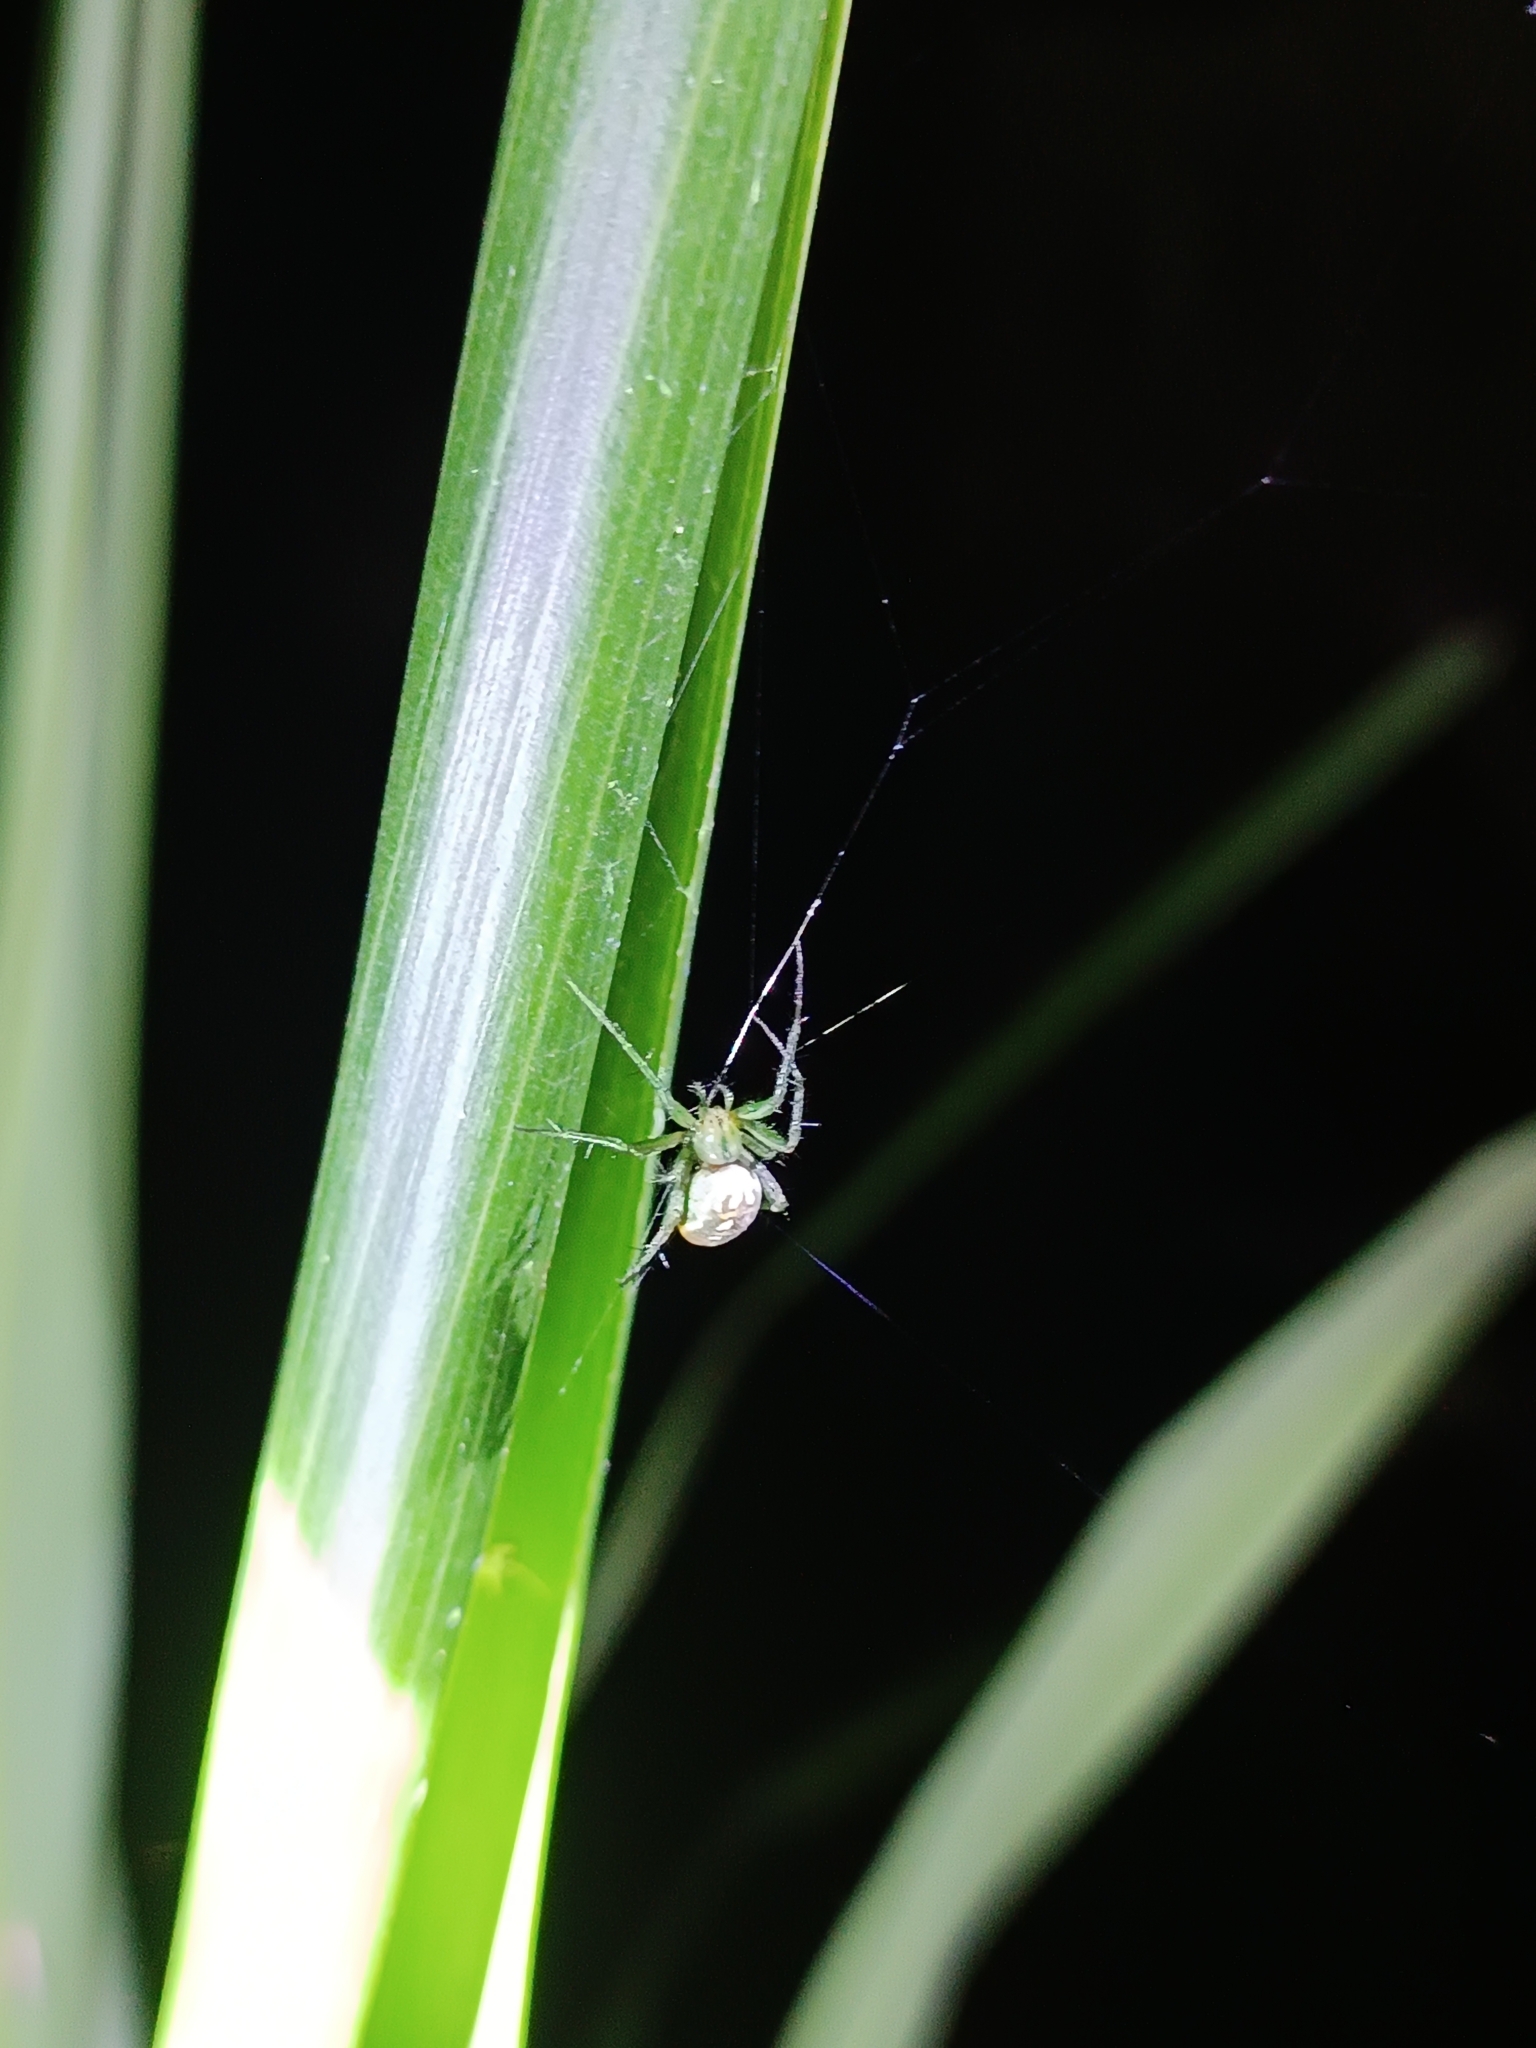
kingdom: Animalia
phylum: Arthropoda
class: Arachnida
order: Araneae
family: Araneidae
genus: Mangora
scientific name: Mangora strenua
